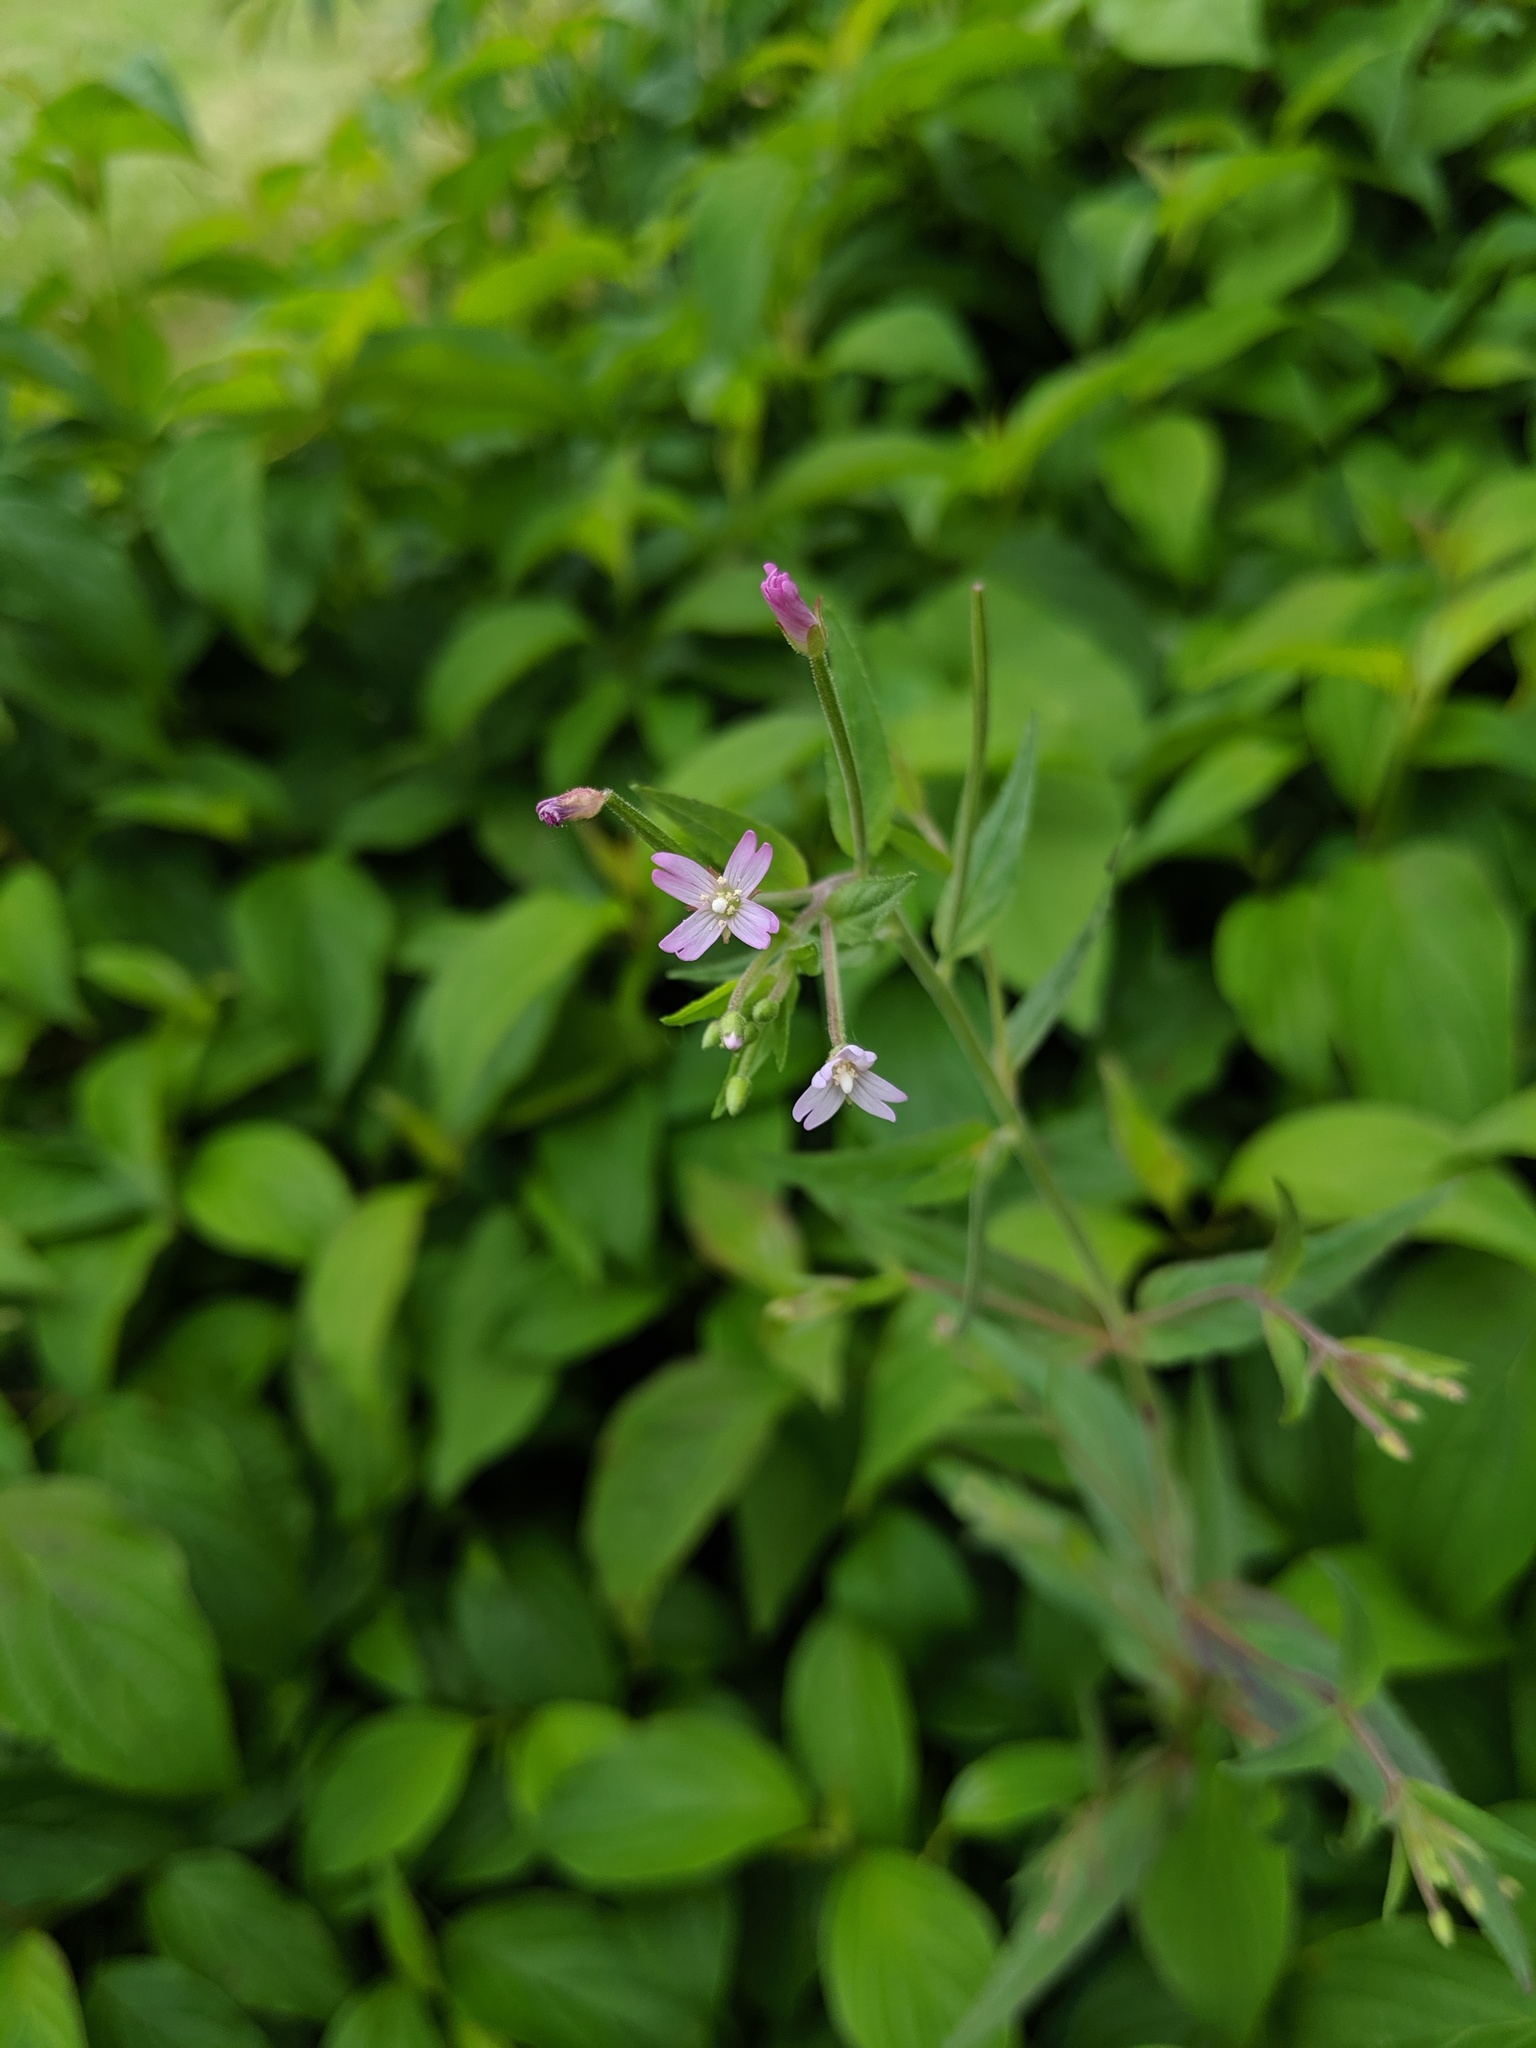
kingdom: Plantae
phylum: Tracheophyta
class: Magnoliopsida
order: Myrtales
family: Onagraceae
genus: Epilobium
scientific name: Epilobium ciliatum
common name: American willowherb
